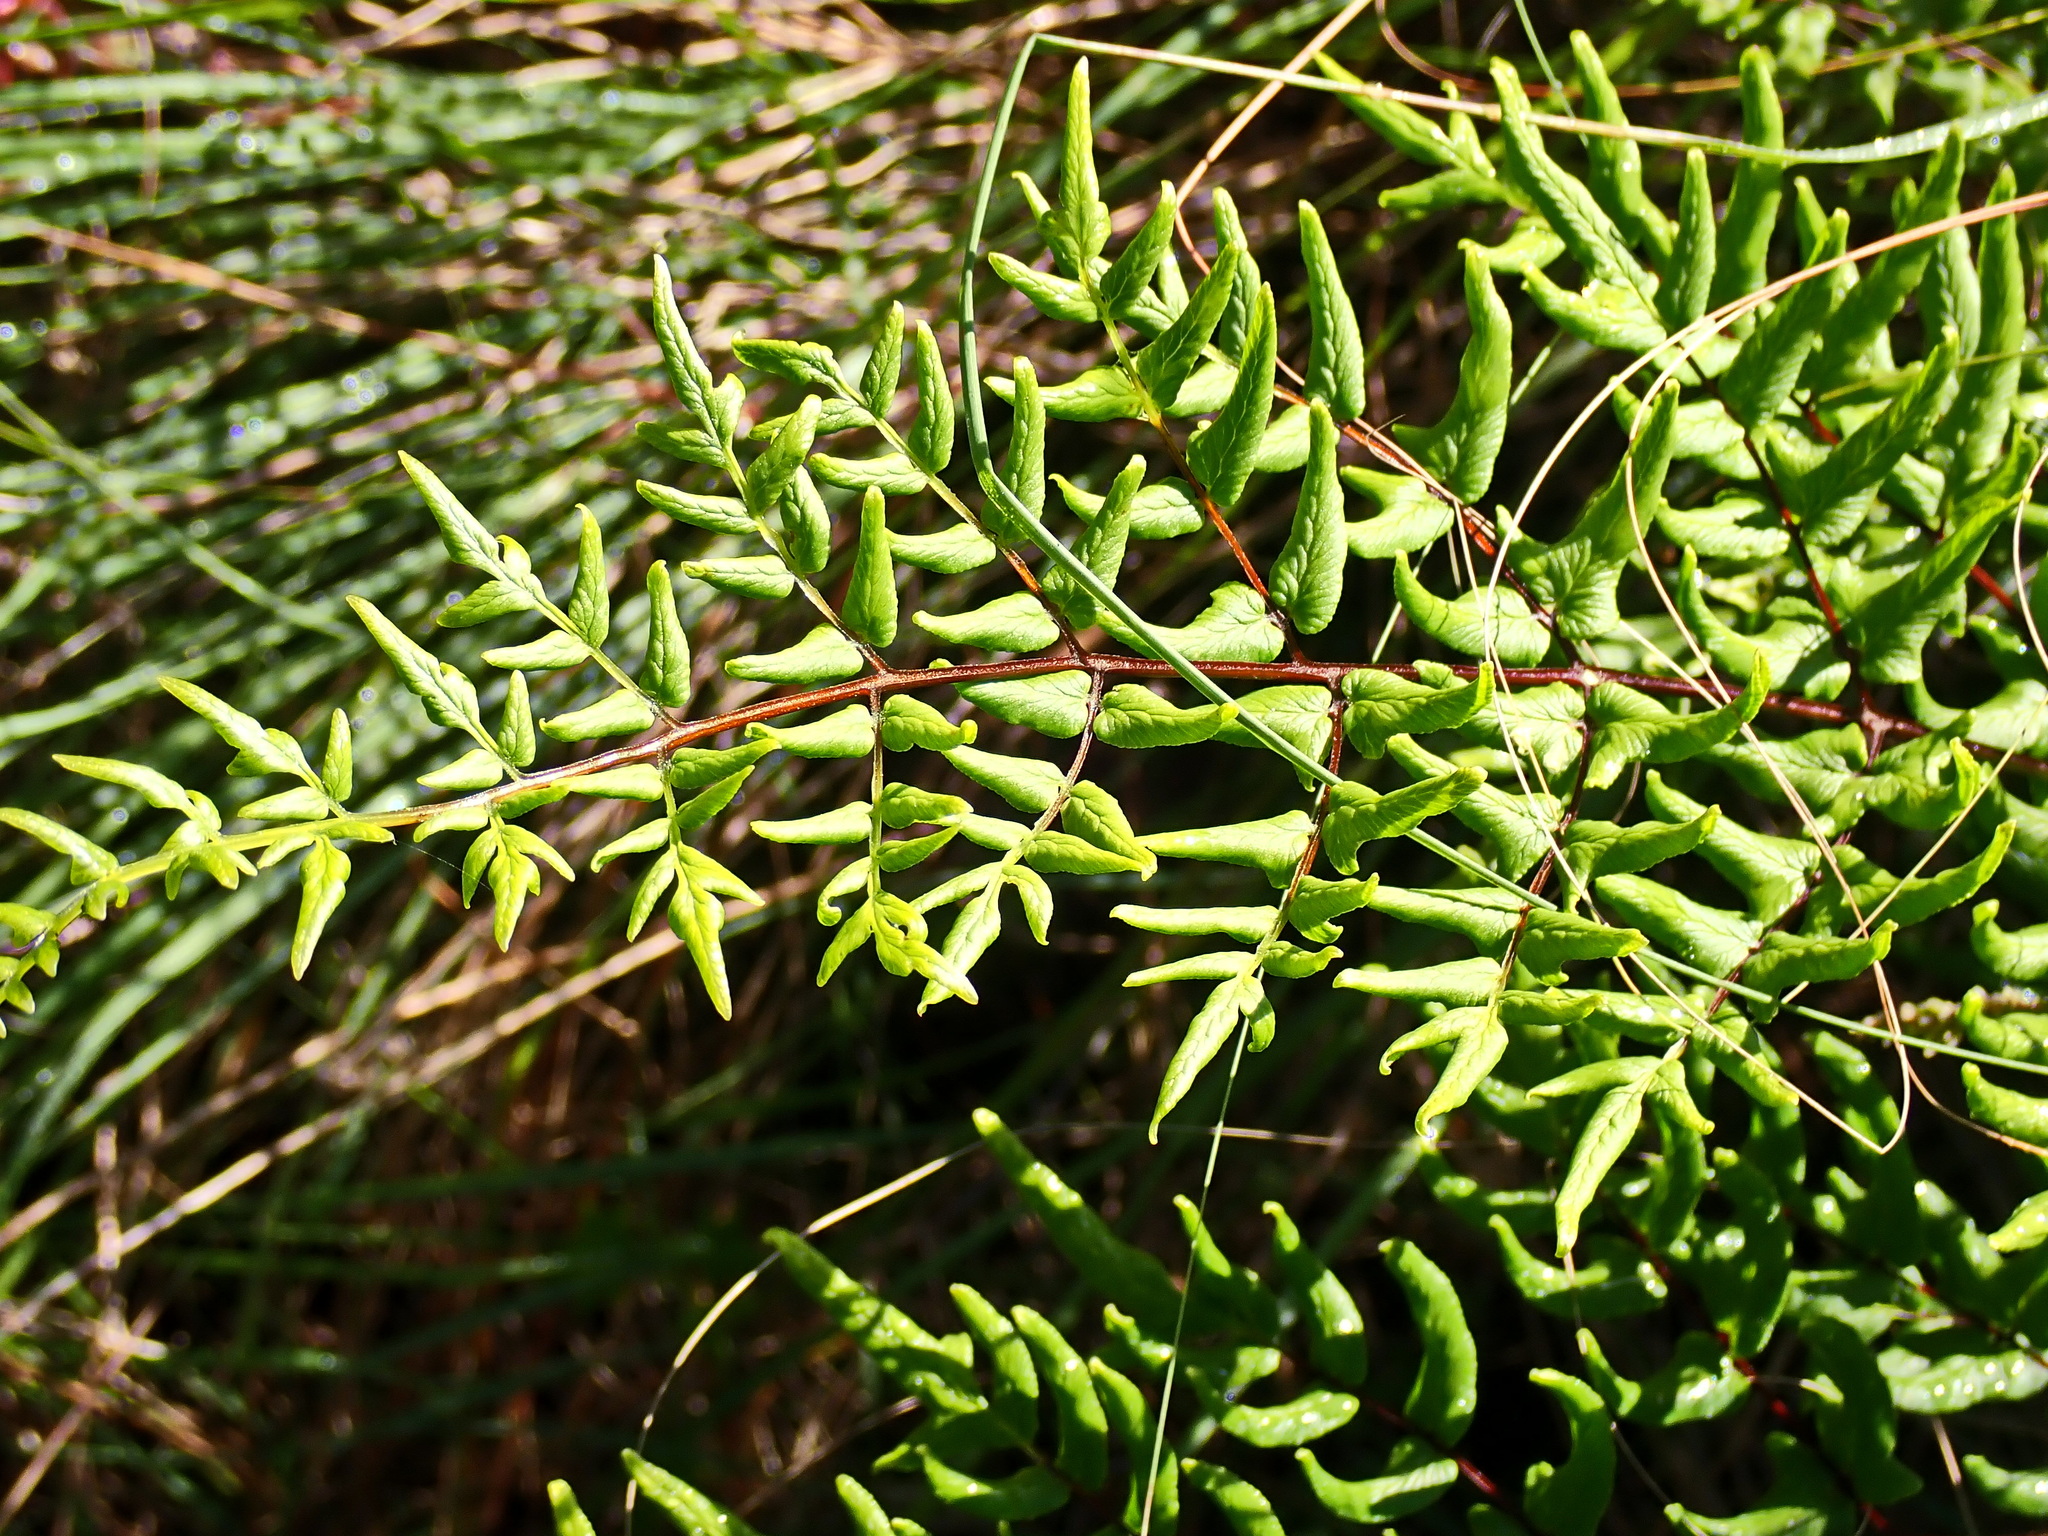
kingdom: Plantae
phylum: Tracheophyta
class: Polypodiopsida
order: Polypodiales
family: Pteridaceae
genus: Cheilanthes
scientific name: Cheilanthes viridis
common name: Green cliffbrake
